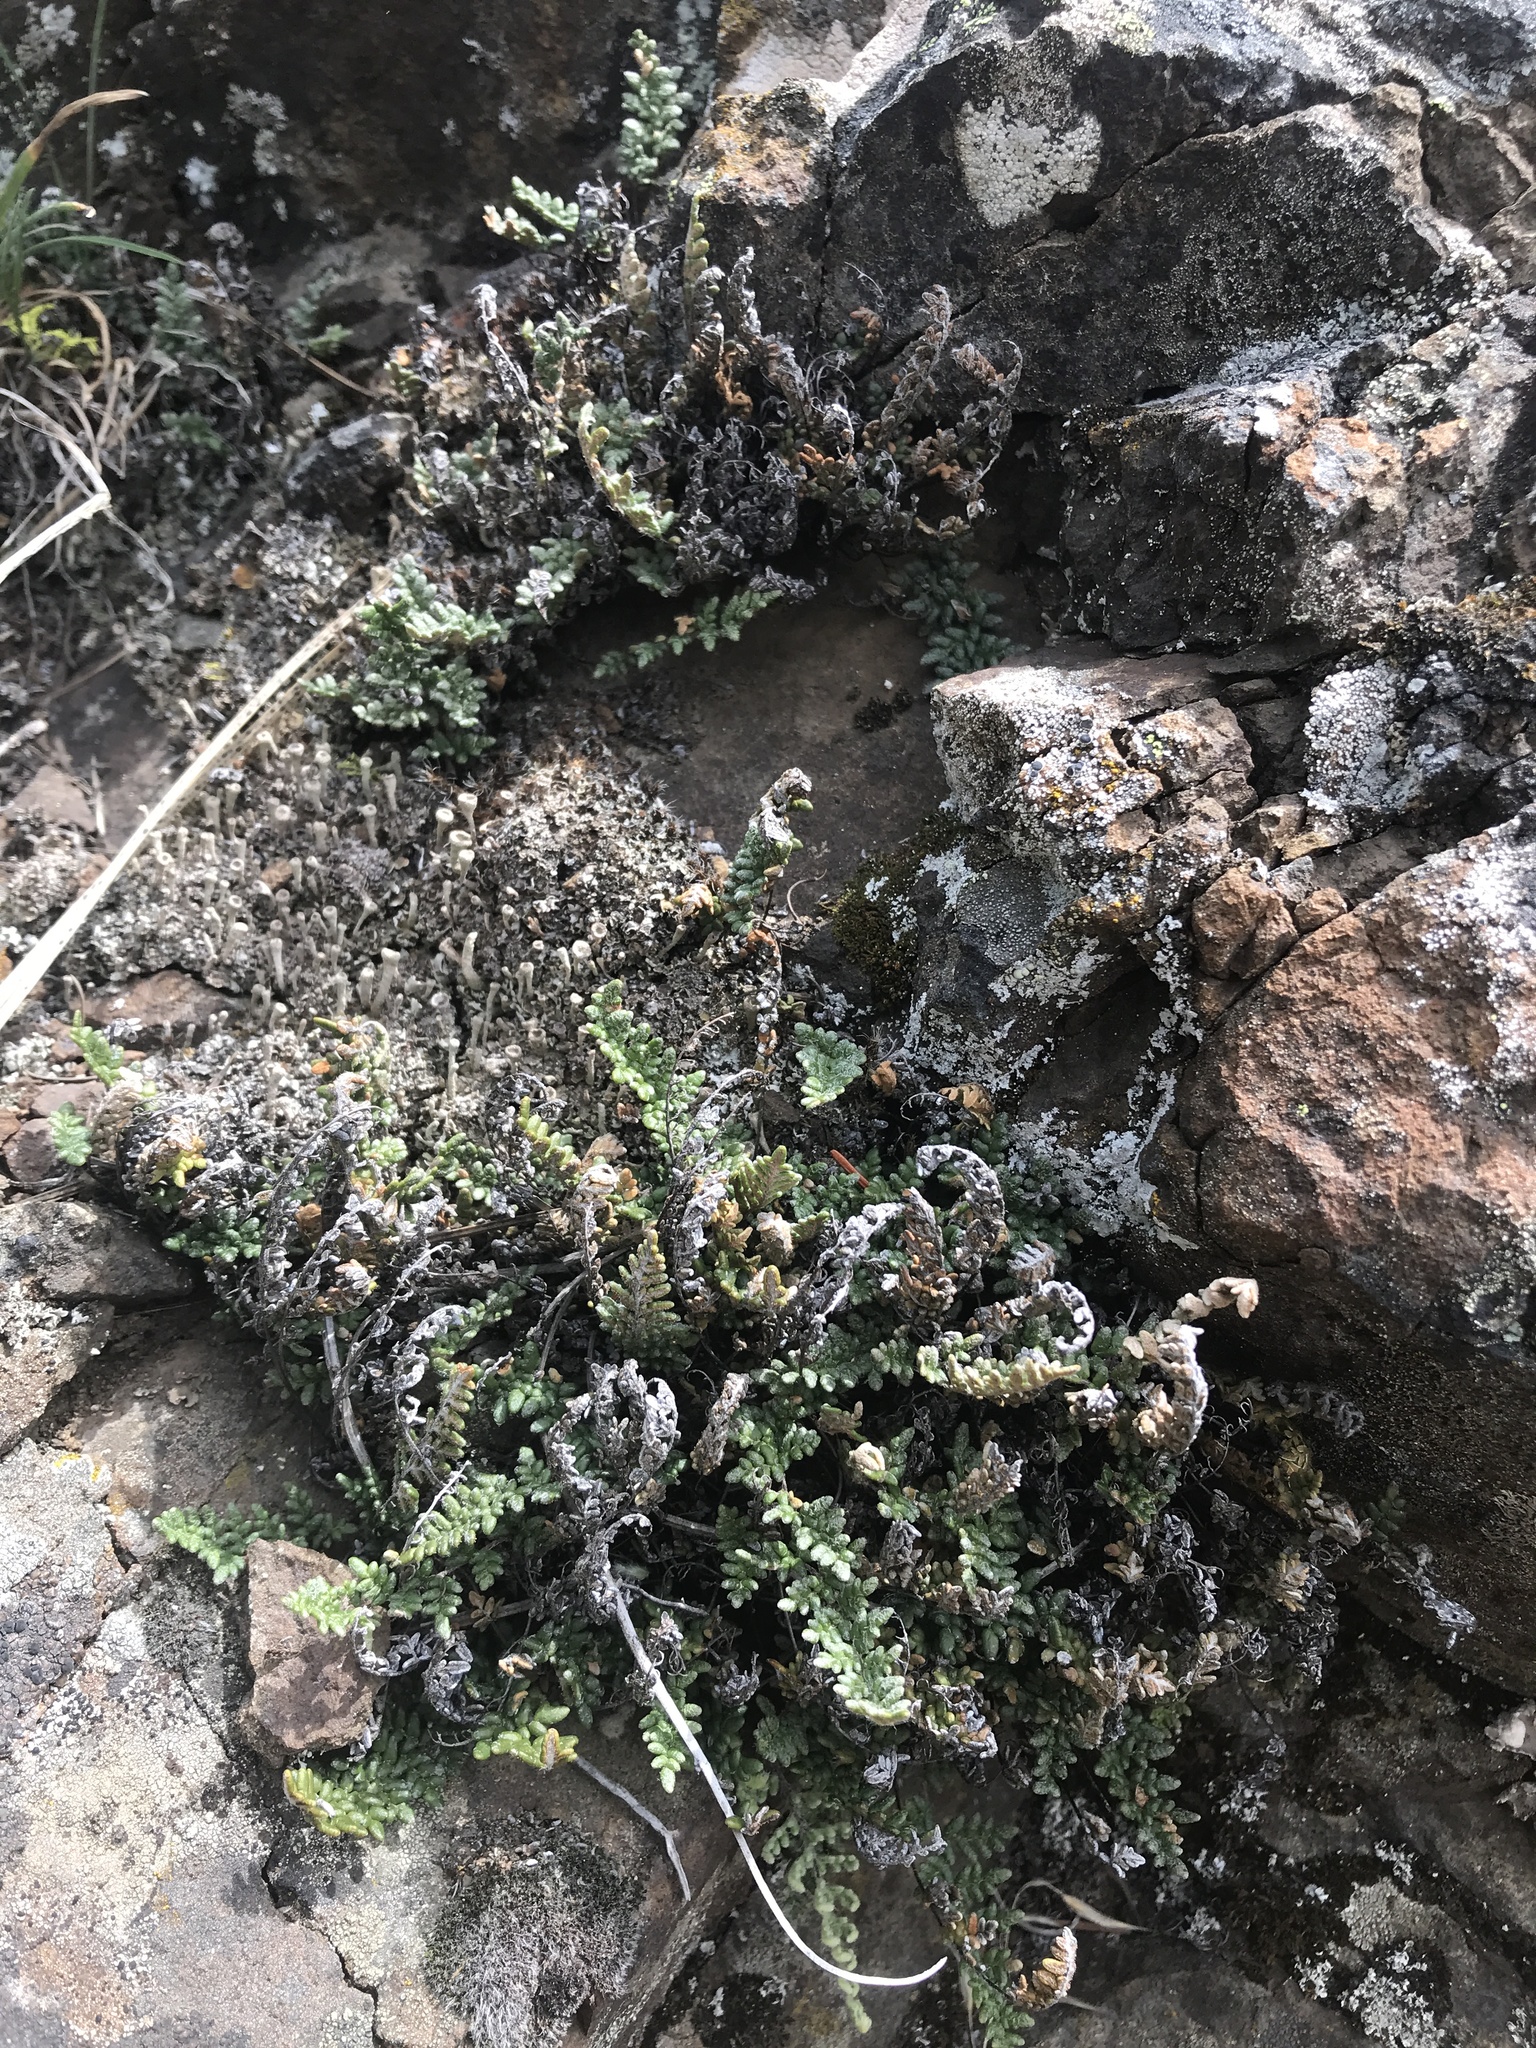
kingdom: Plantae
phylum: Tracheophyta
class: Polypodiopsida
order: Polypodiales
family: Pteridaceae
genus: Myriopteris
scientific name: Myriopteris gracillima
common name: Lace fern
